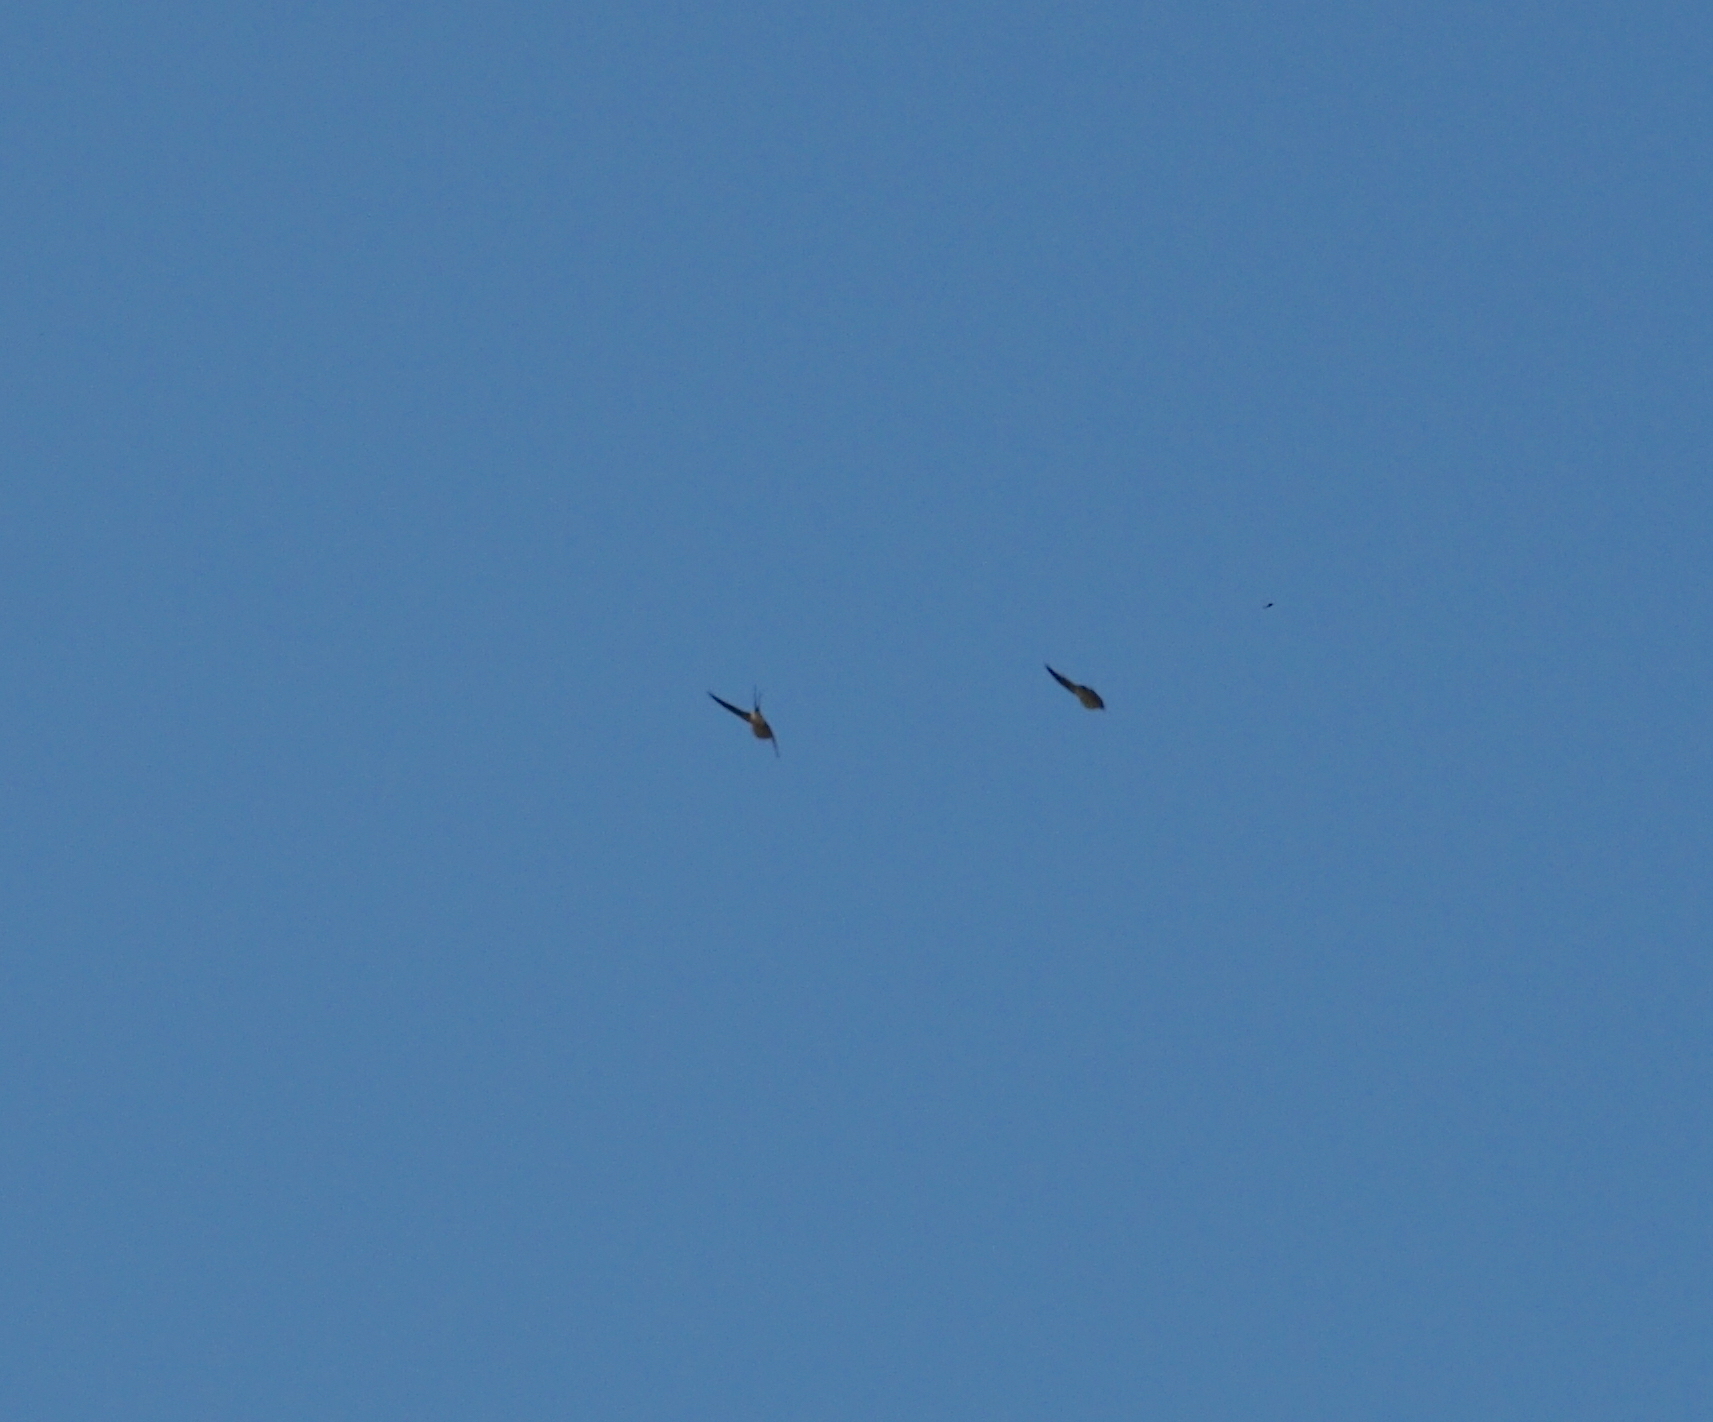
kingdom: Animalia
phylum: Chordata
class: Aves
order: Passeriformes
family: Hirundinidae
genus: Hirundo
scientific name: Hirundo rustica
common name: Barn swallow
